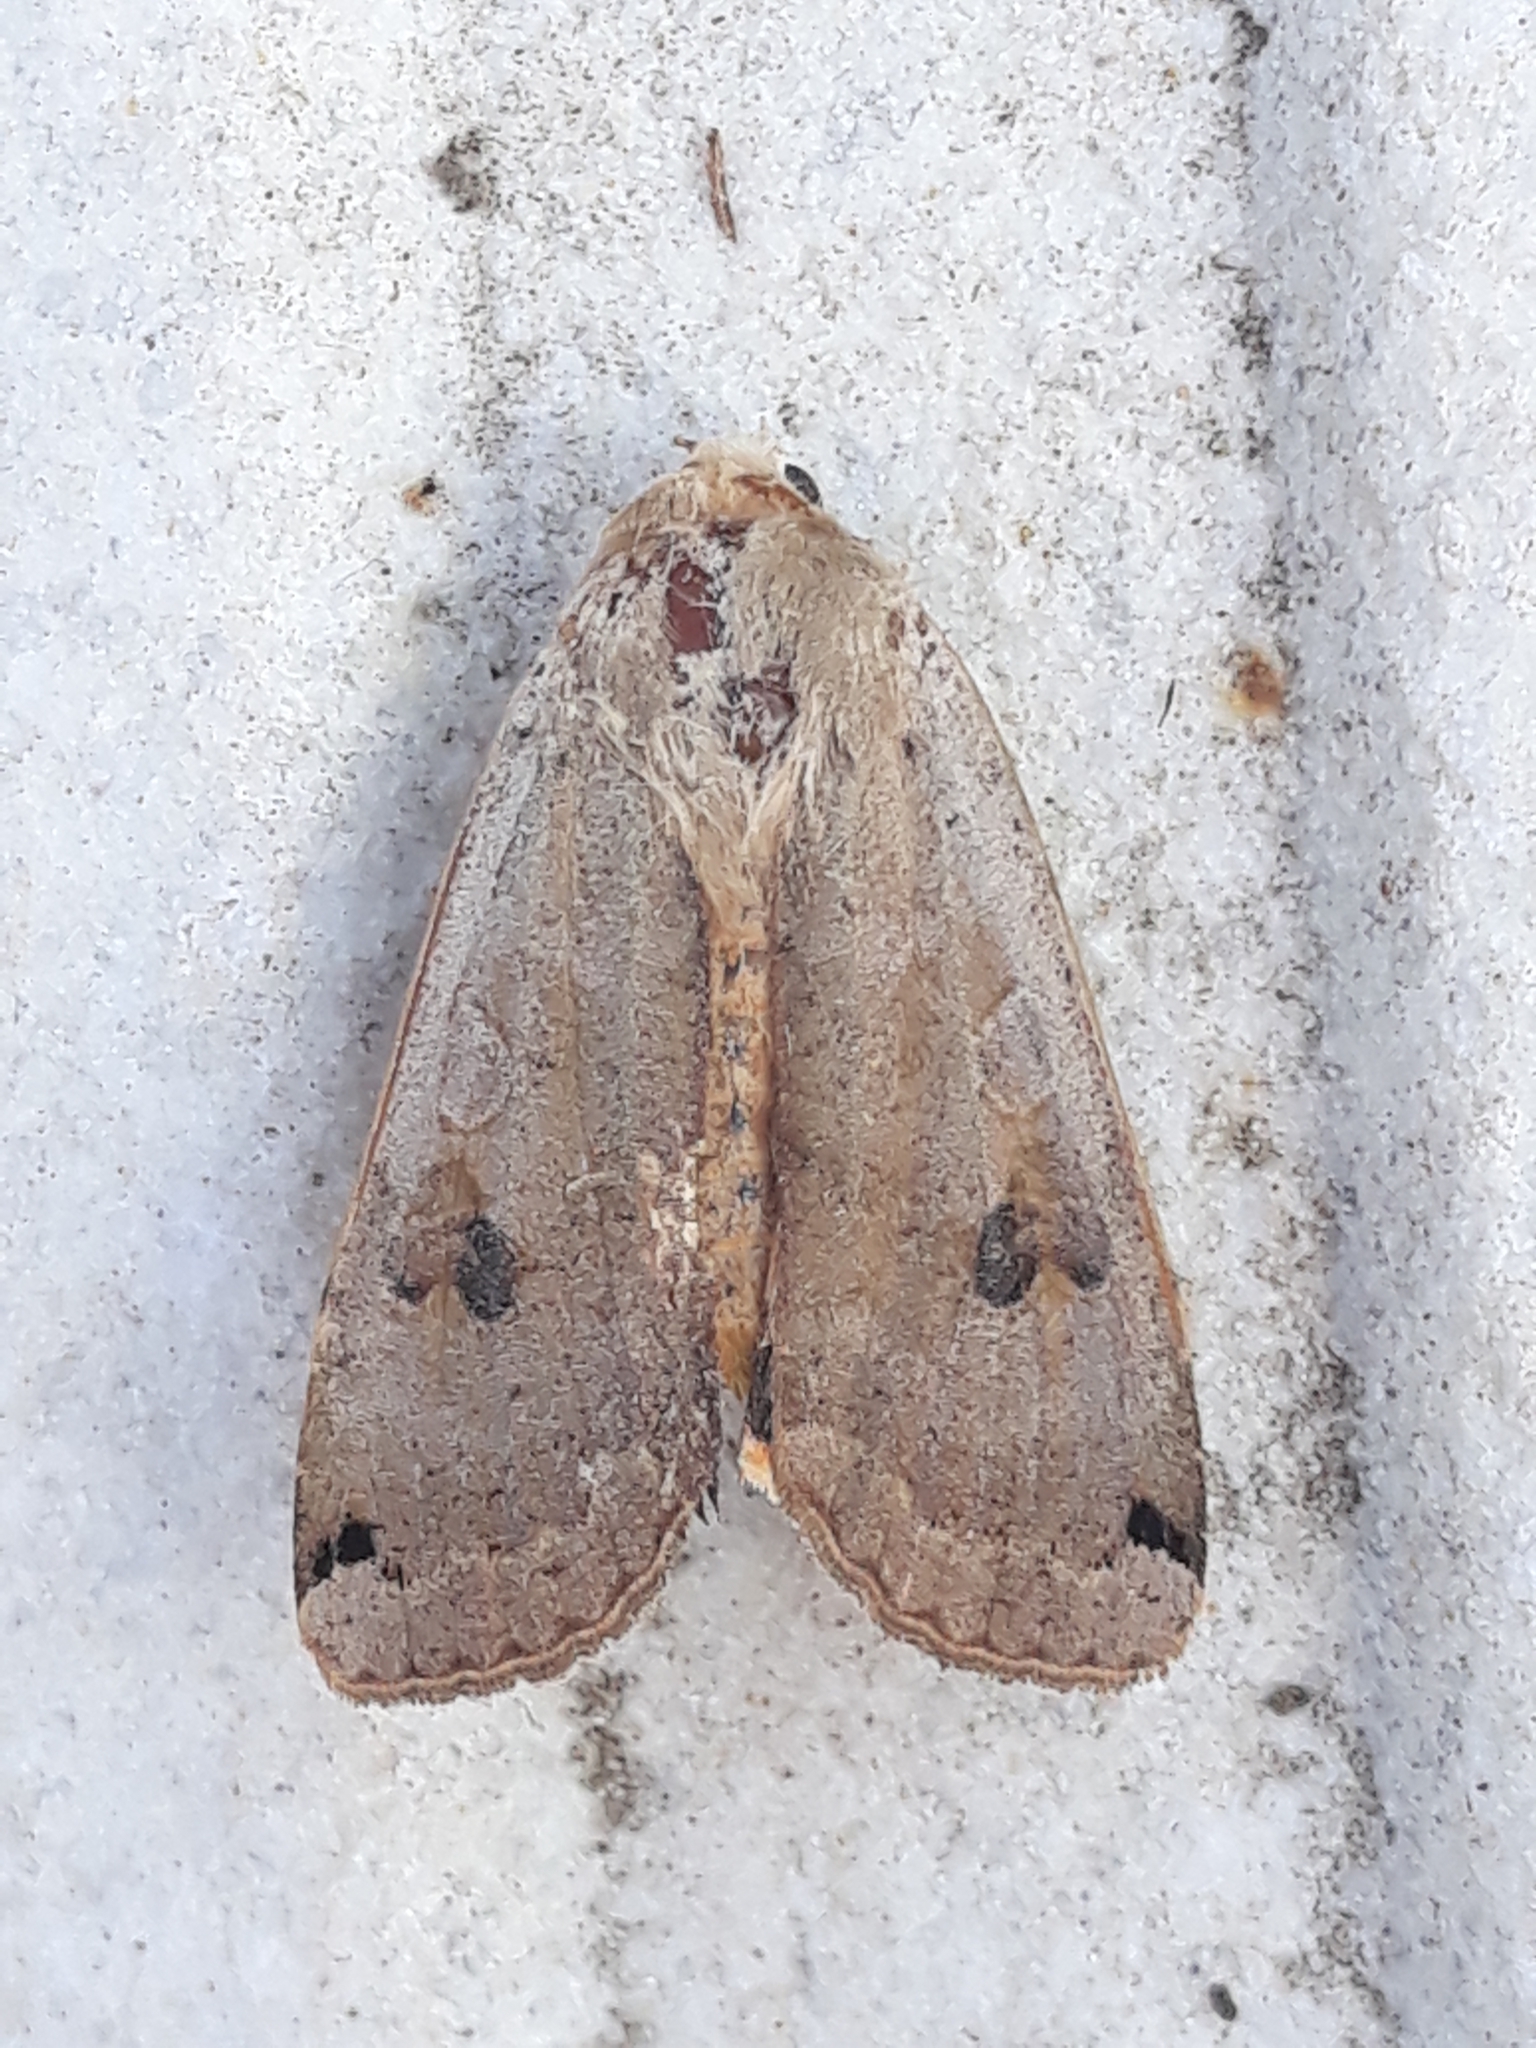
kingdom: Animalia
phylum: Arthropoda
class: Insecta
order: Lepidoptera
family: Noctuidae
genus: Noctua
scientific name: Noctua pronuba
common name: Large yellow underwing
